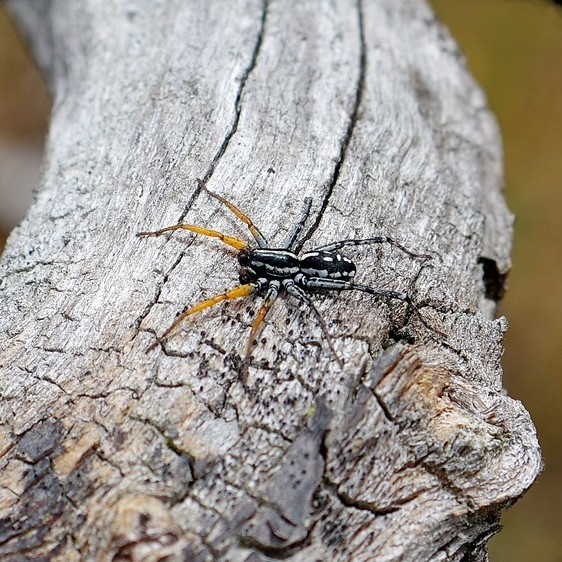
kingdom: Animalia
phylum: Arthropoda
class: Arachnida
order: Araneae
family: Corinnidae
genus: Nyssus
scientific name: Nyssus coloripes
